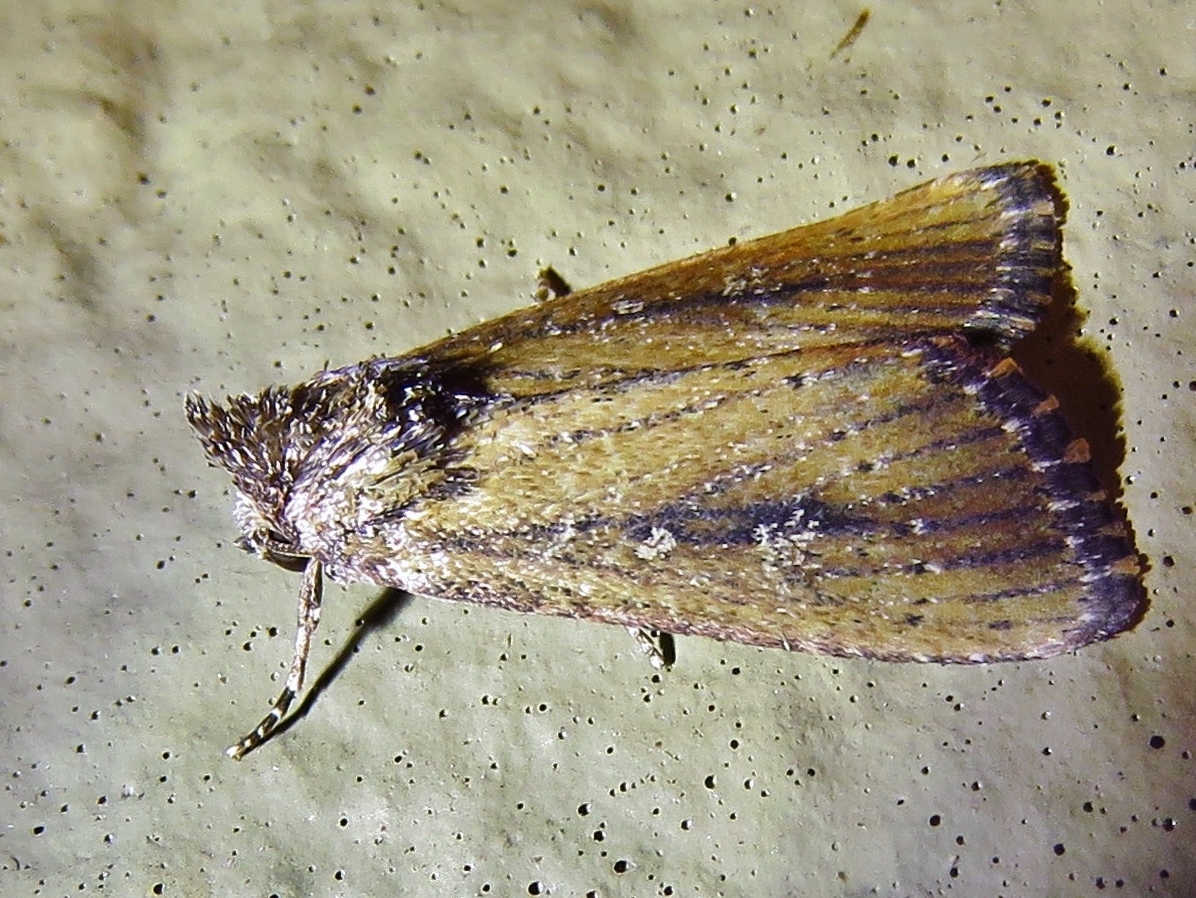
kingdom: Animalia
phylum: Arthropoda
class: Insecta
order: Lepidoptera
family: Noctuidae
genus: Condica
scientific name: Condica videns
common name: White-dotted groundling
